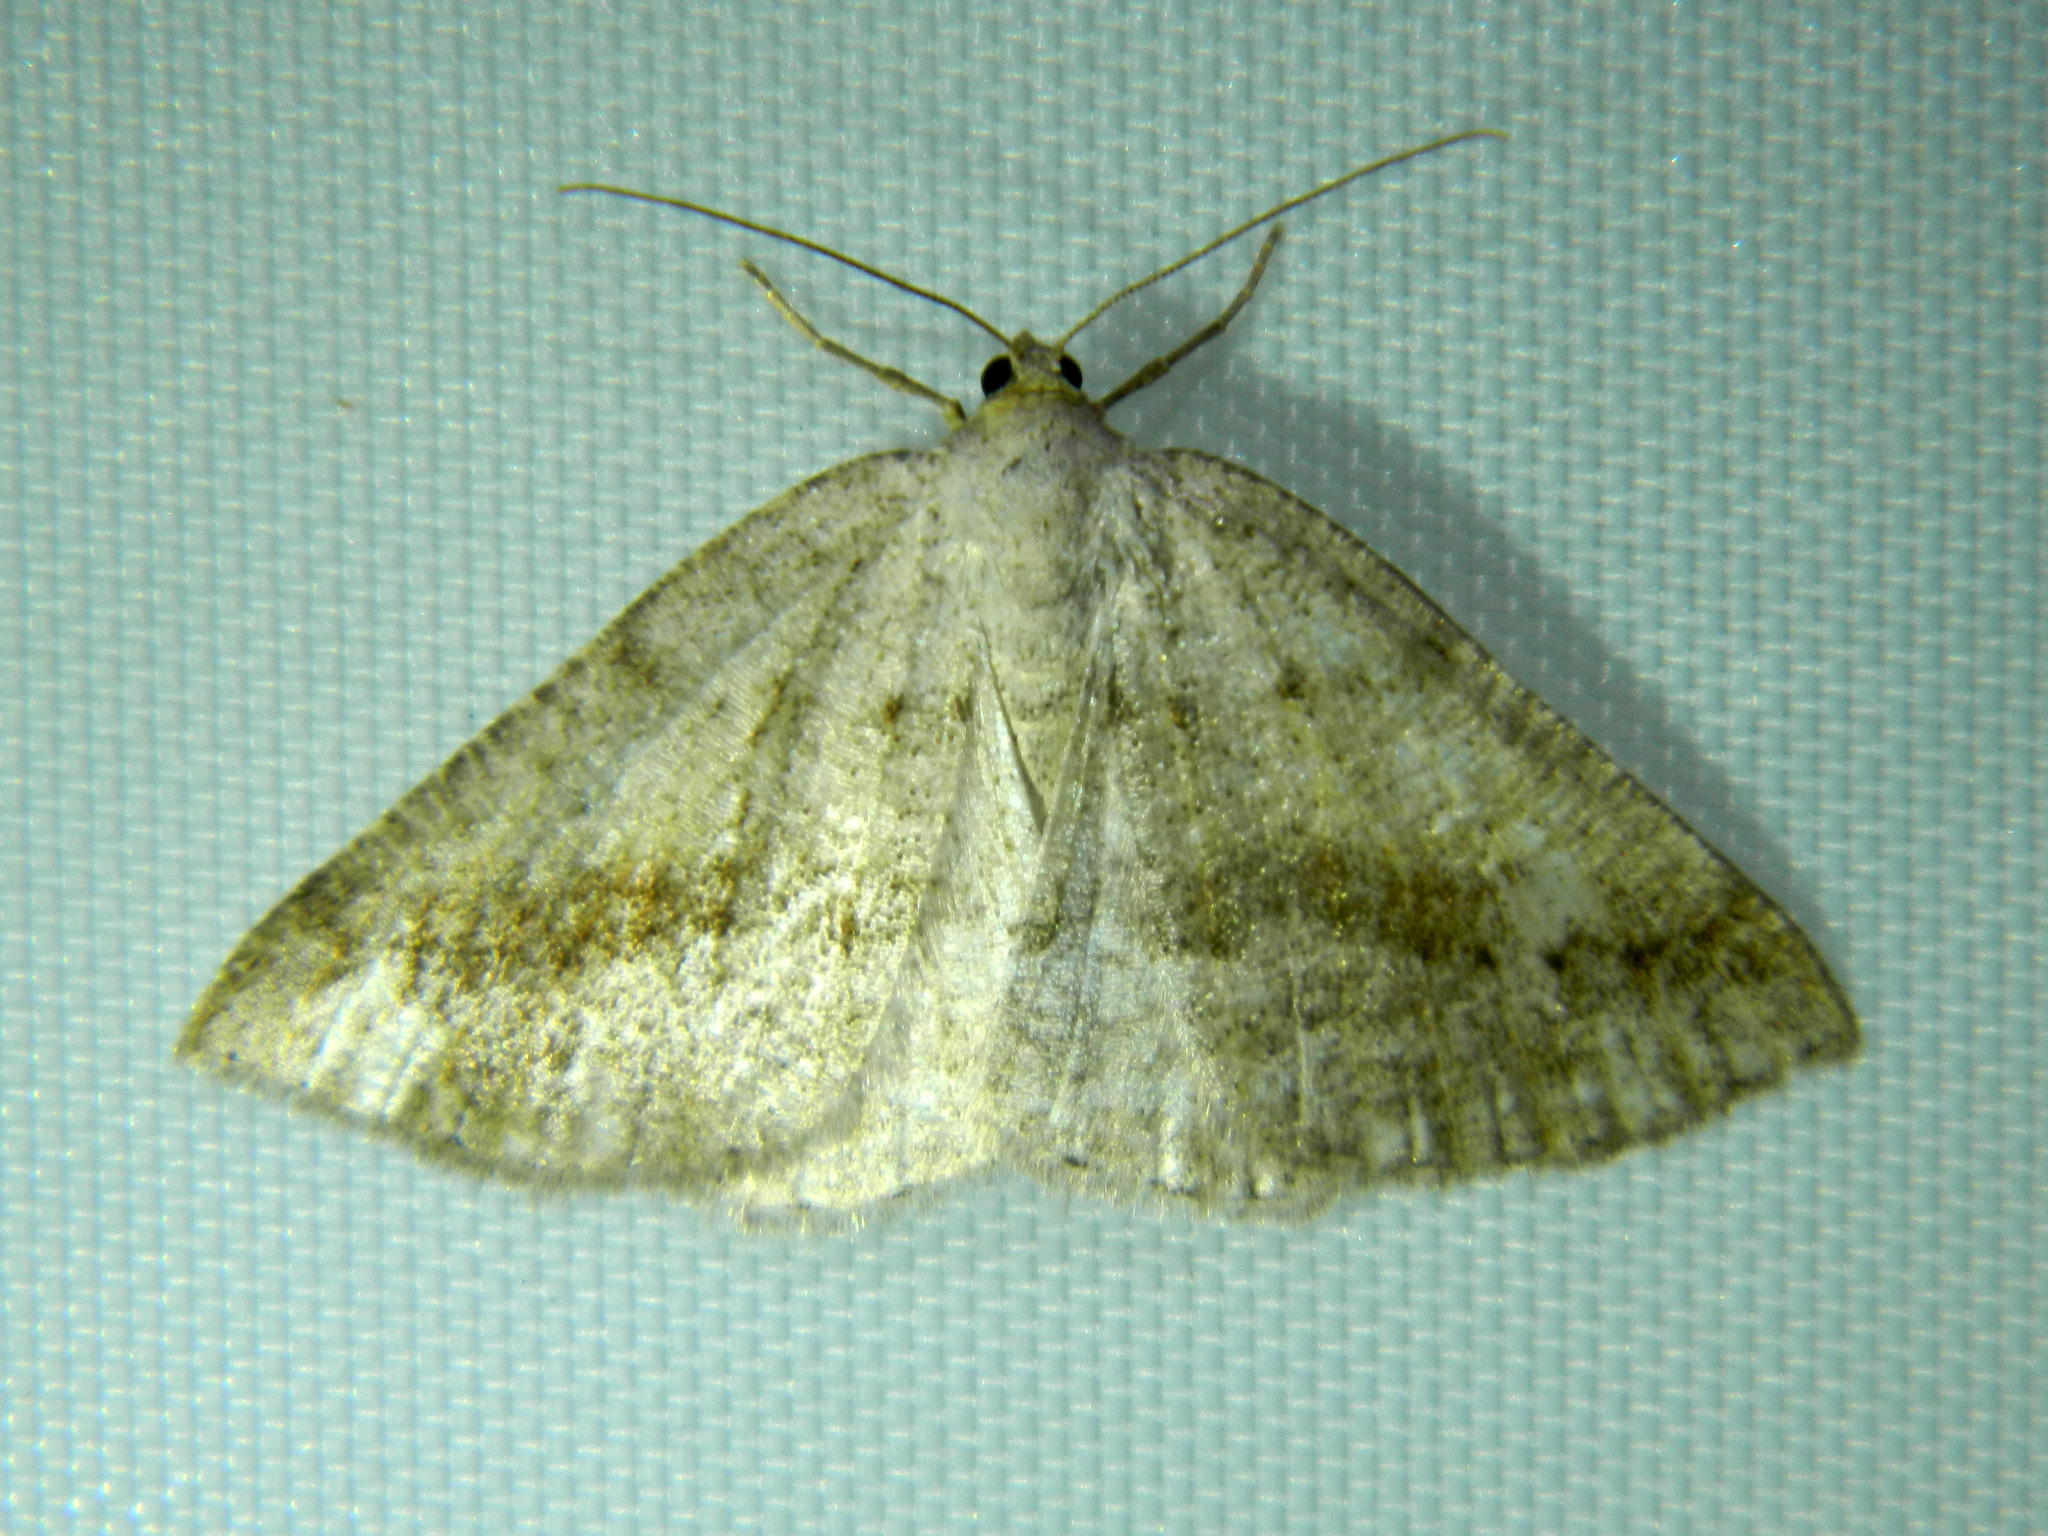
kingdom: Animalia
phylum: Arthropoda
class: Insecta
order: Lepidoptera
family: Geometridae
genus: Tacparia
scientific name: Tacparia detersata
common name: Pale alder moth
